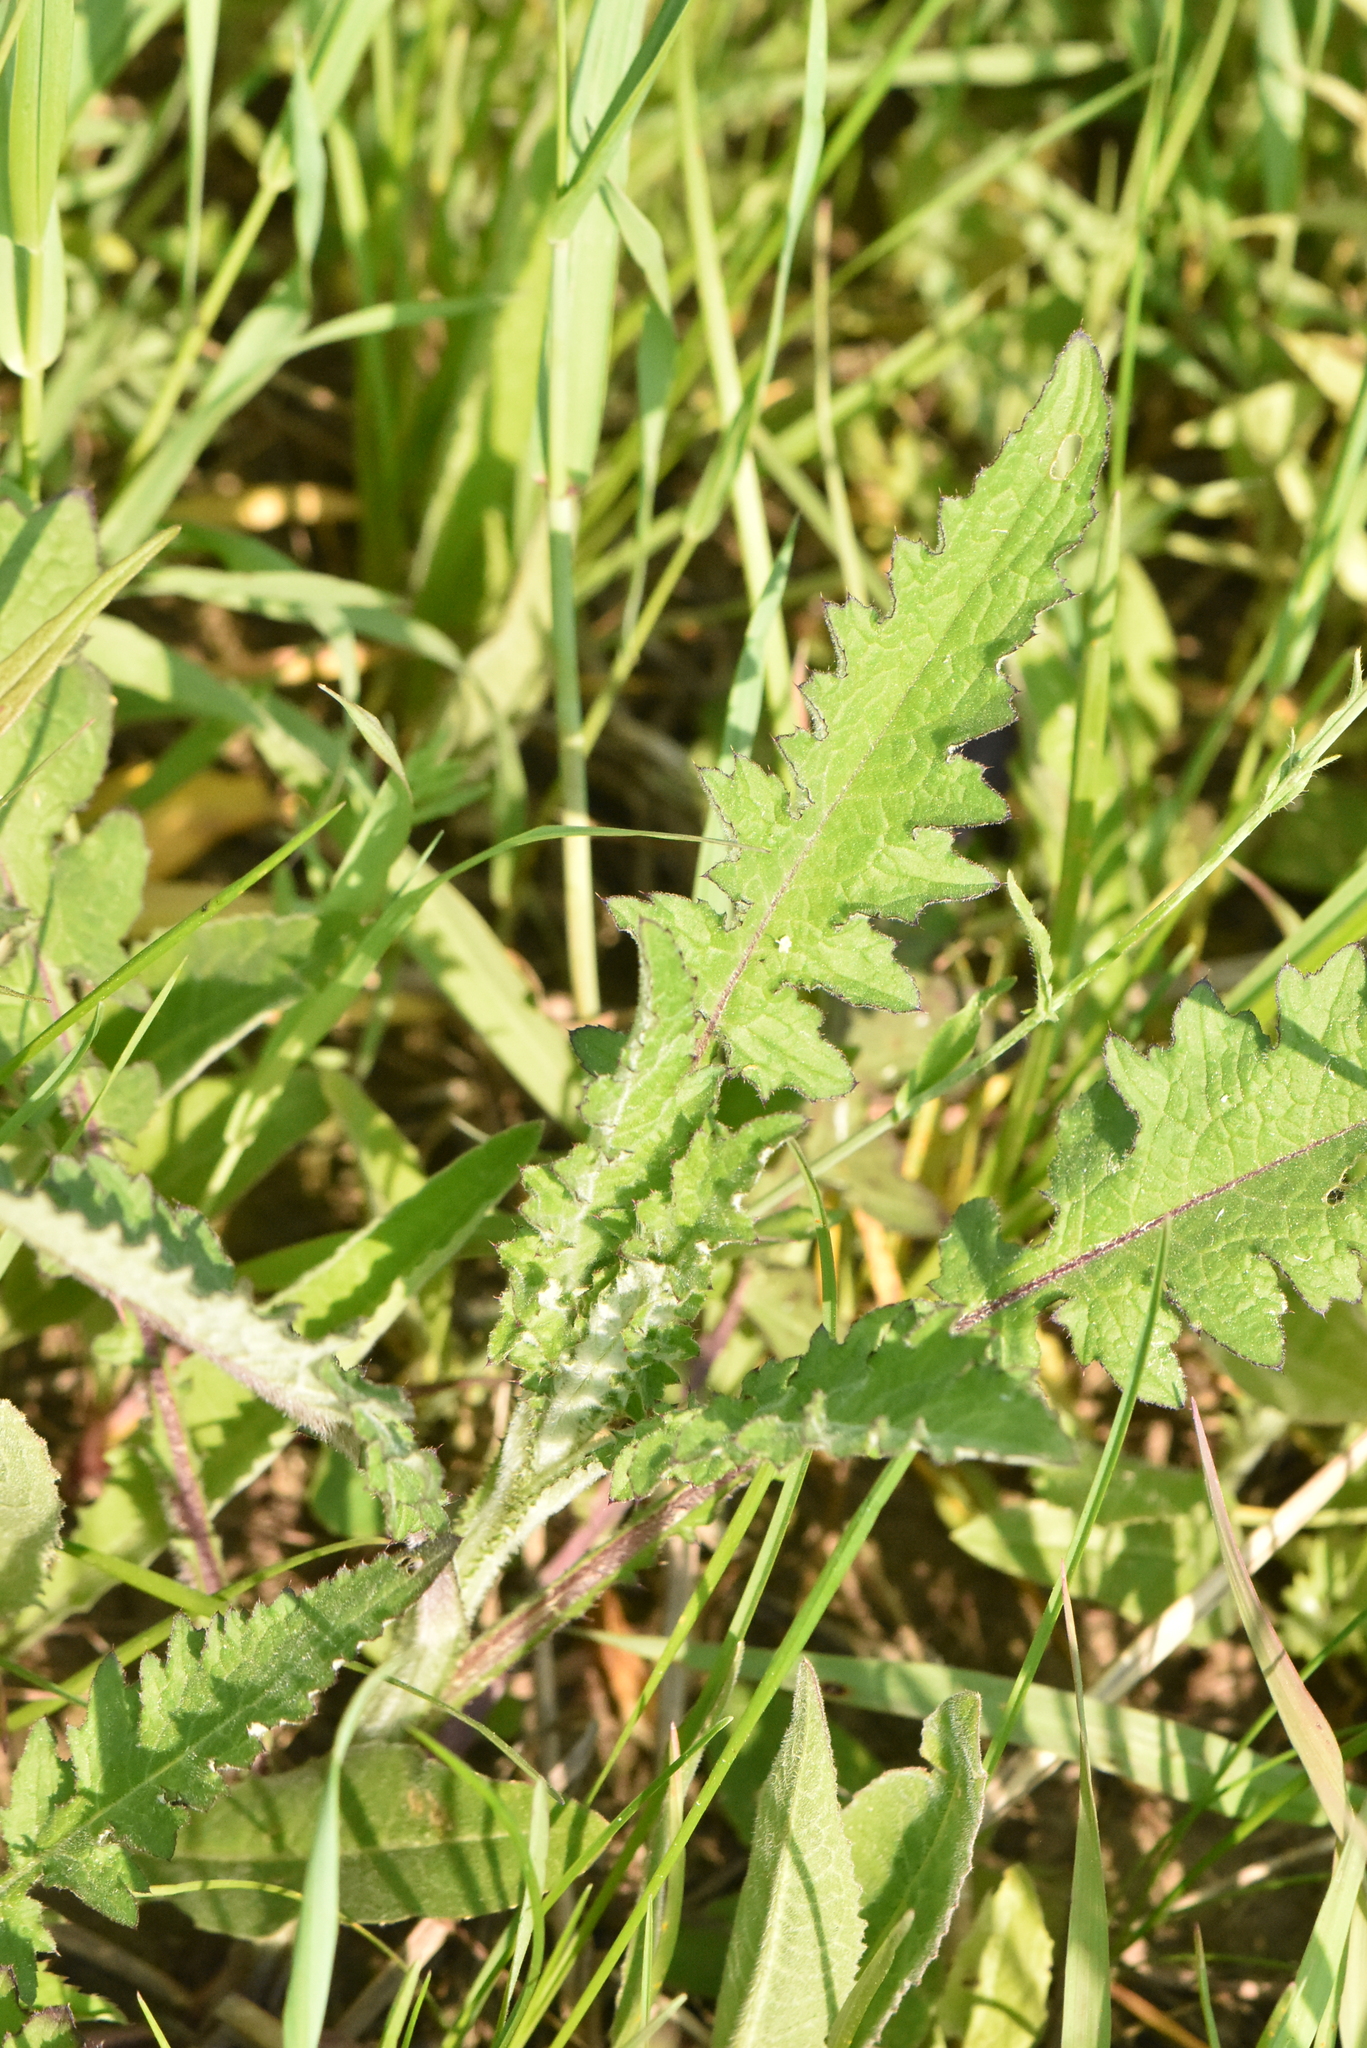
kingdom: Plantae
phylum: Tracheophyta
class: Magnoliopsida
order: Asterales
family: Asteraceae
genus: Carduus
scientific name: Carduus crispus
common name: Welted thistle
